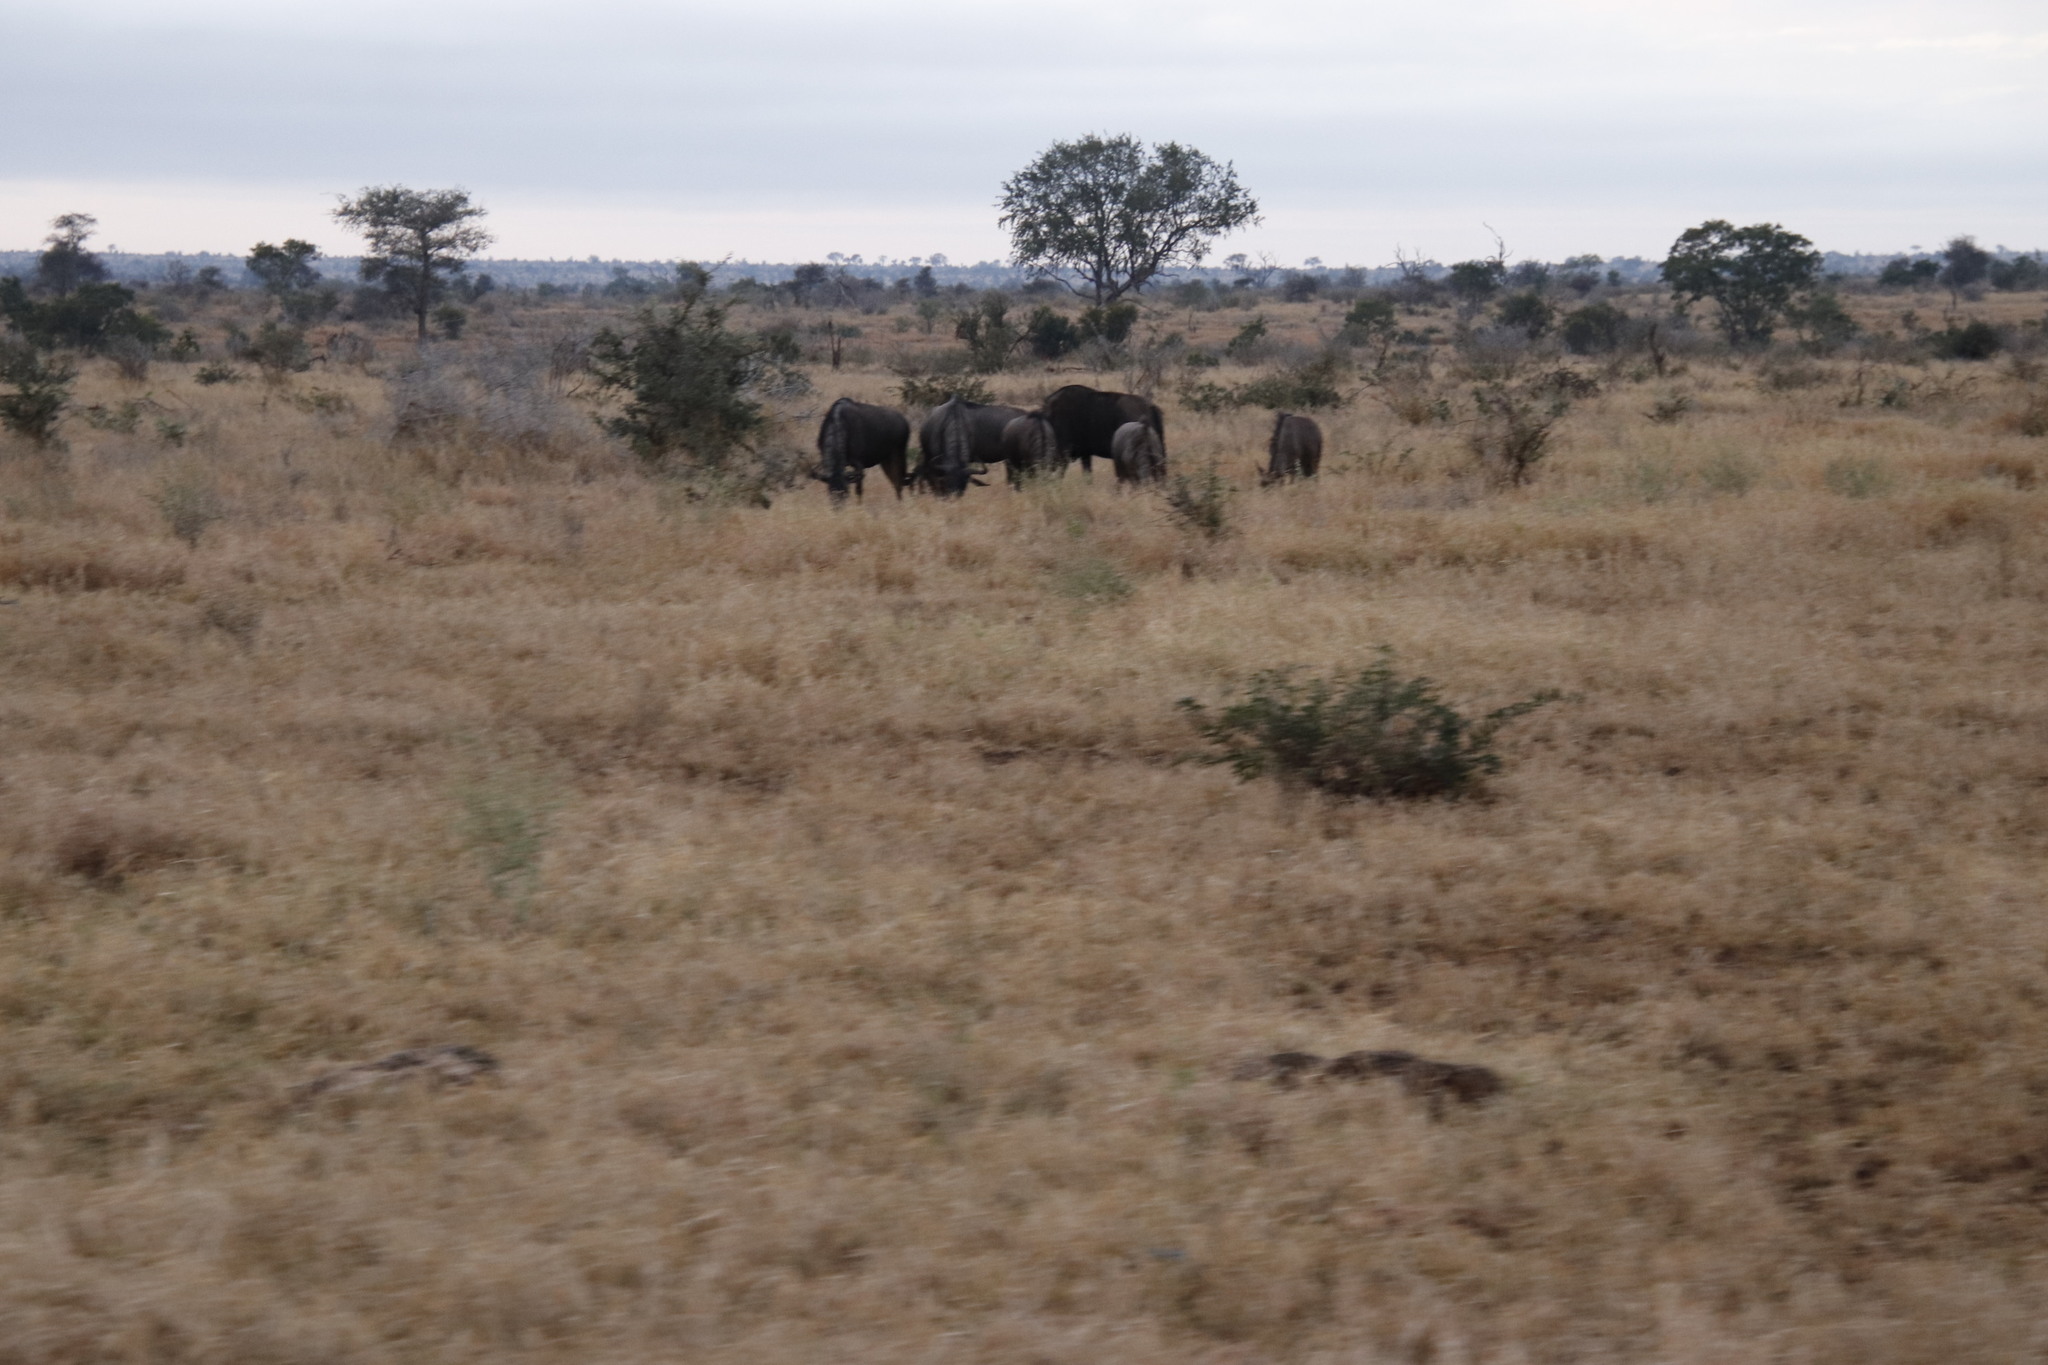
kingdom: Animalia
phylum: Chordata
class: Mammalia
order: Artiodactyla
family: Bovidae
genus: Connochaetes
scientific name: Connochaetes taurinus
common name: Blue wildebeest
